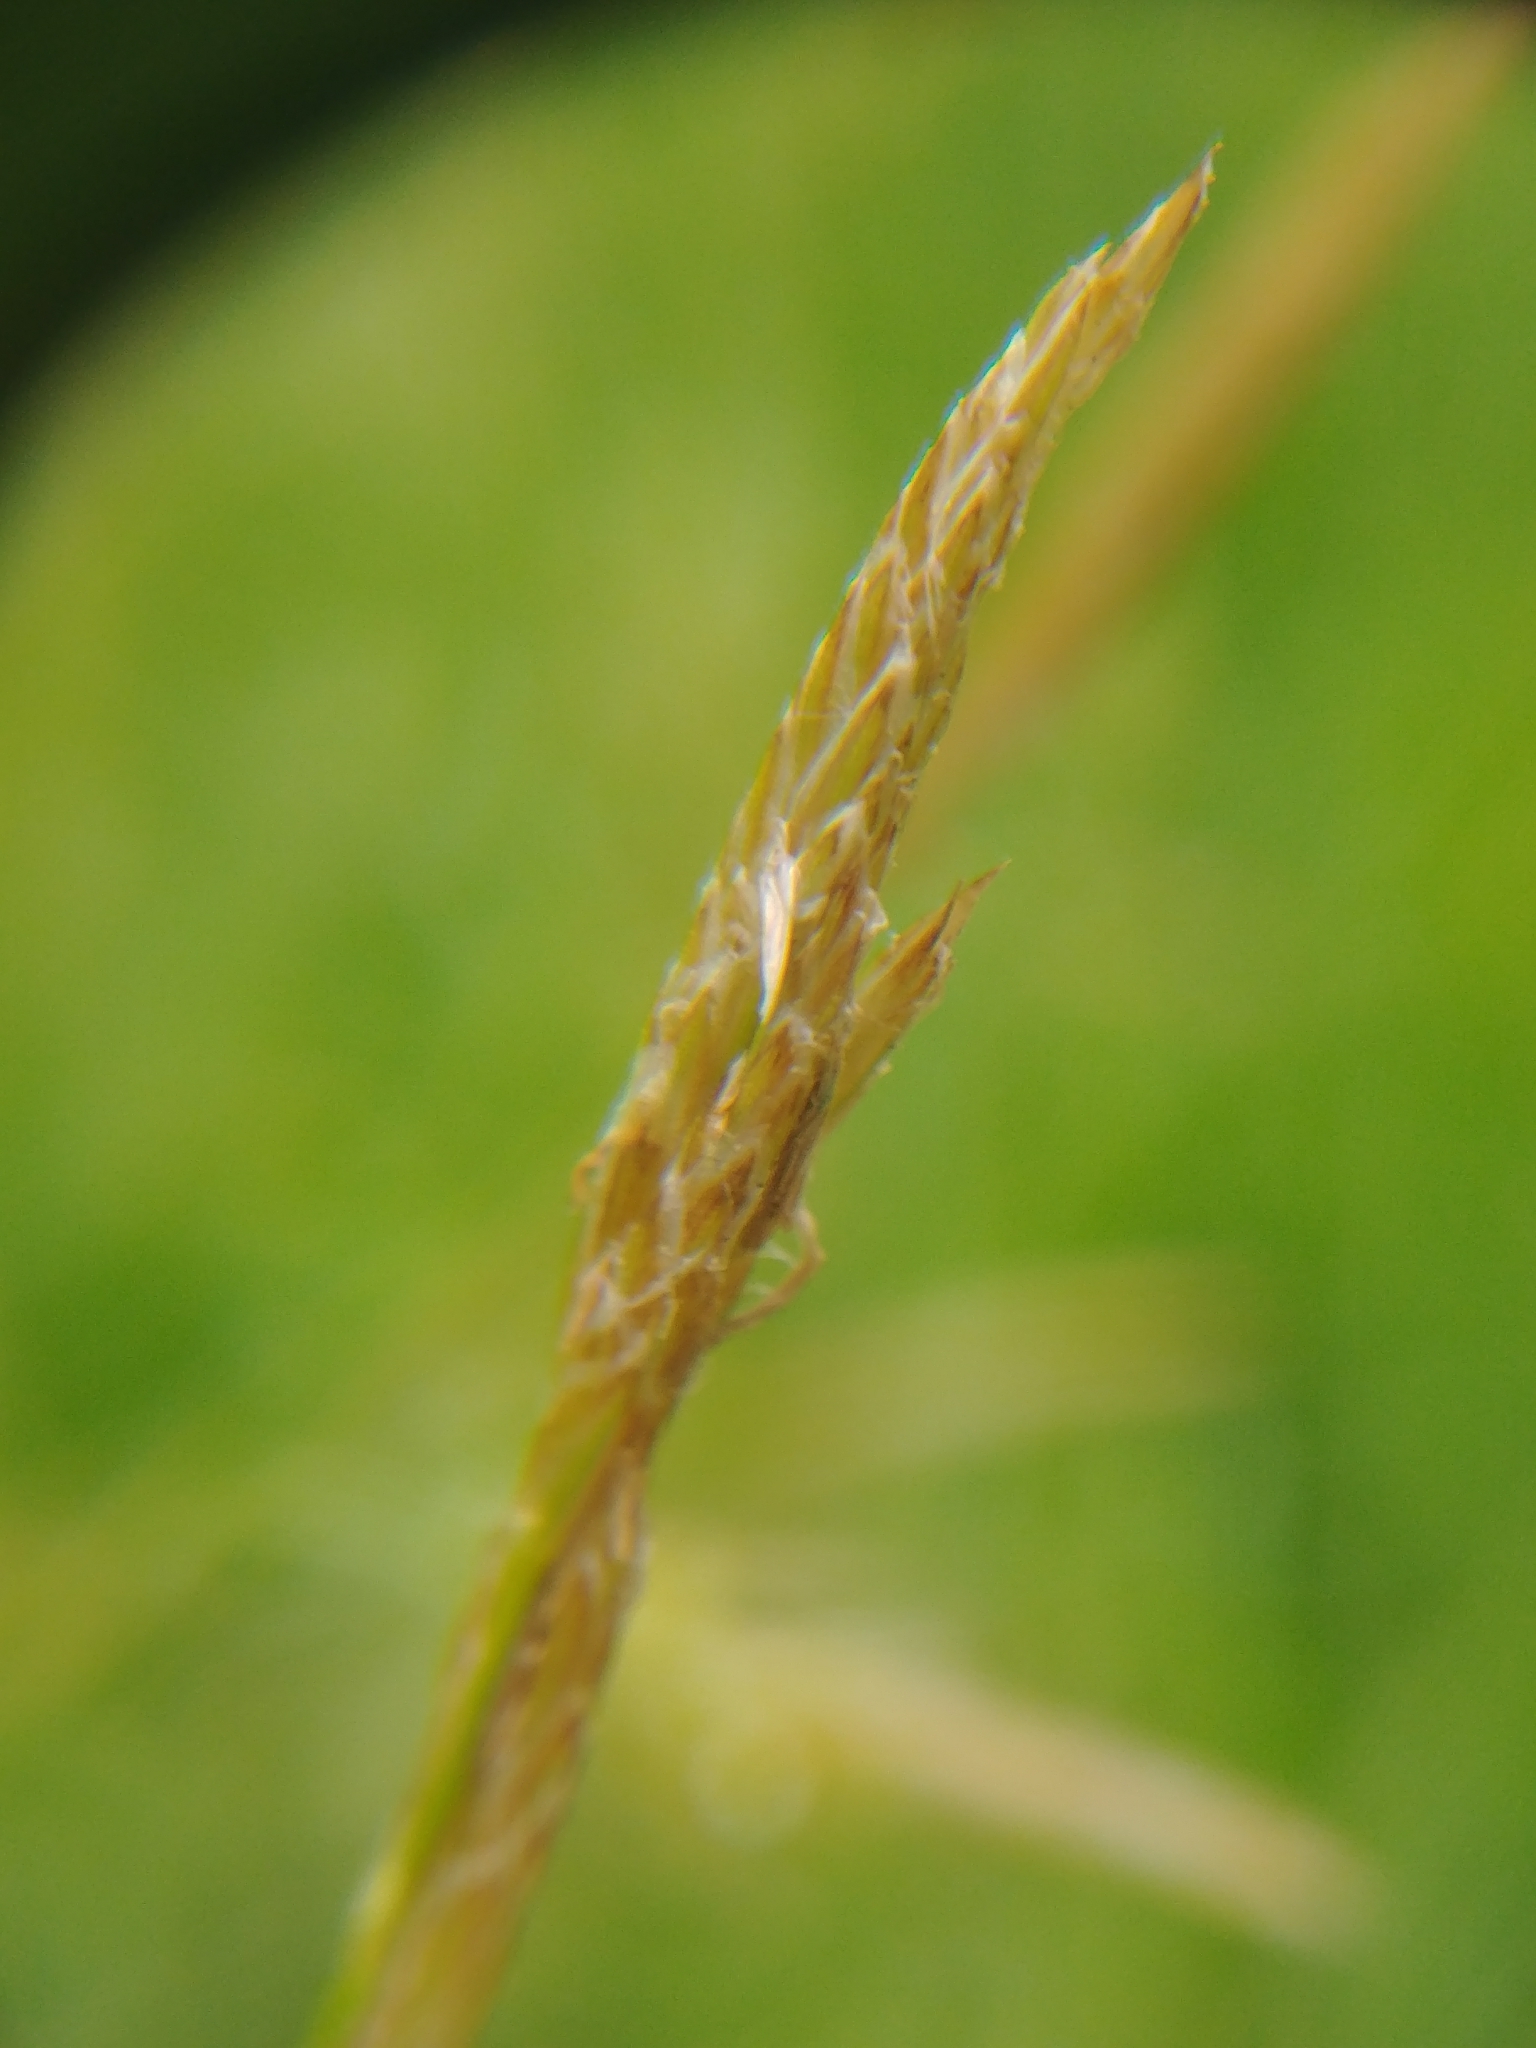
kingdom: Plantae
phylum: Tracheophyta
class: Liliopsida
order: Poales
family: Cyperaceae
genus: Carex
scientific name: Carex sprengelii
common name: Long-beaked sedge
